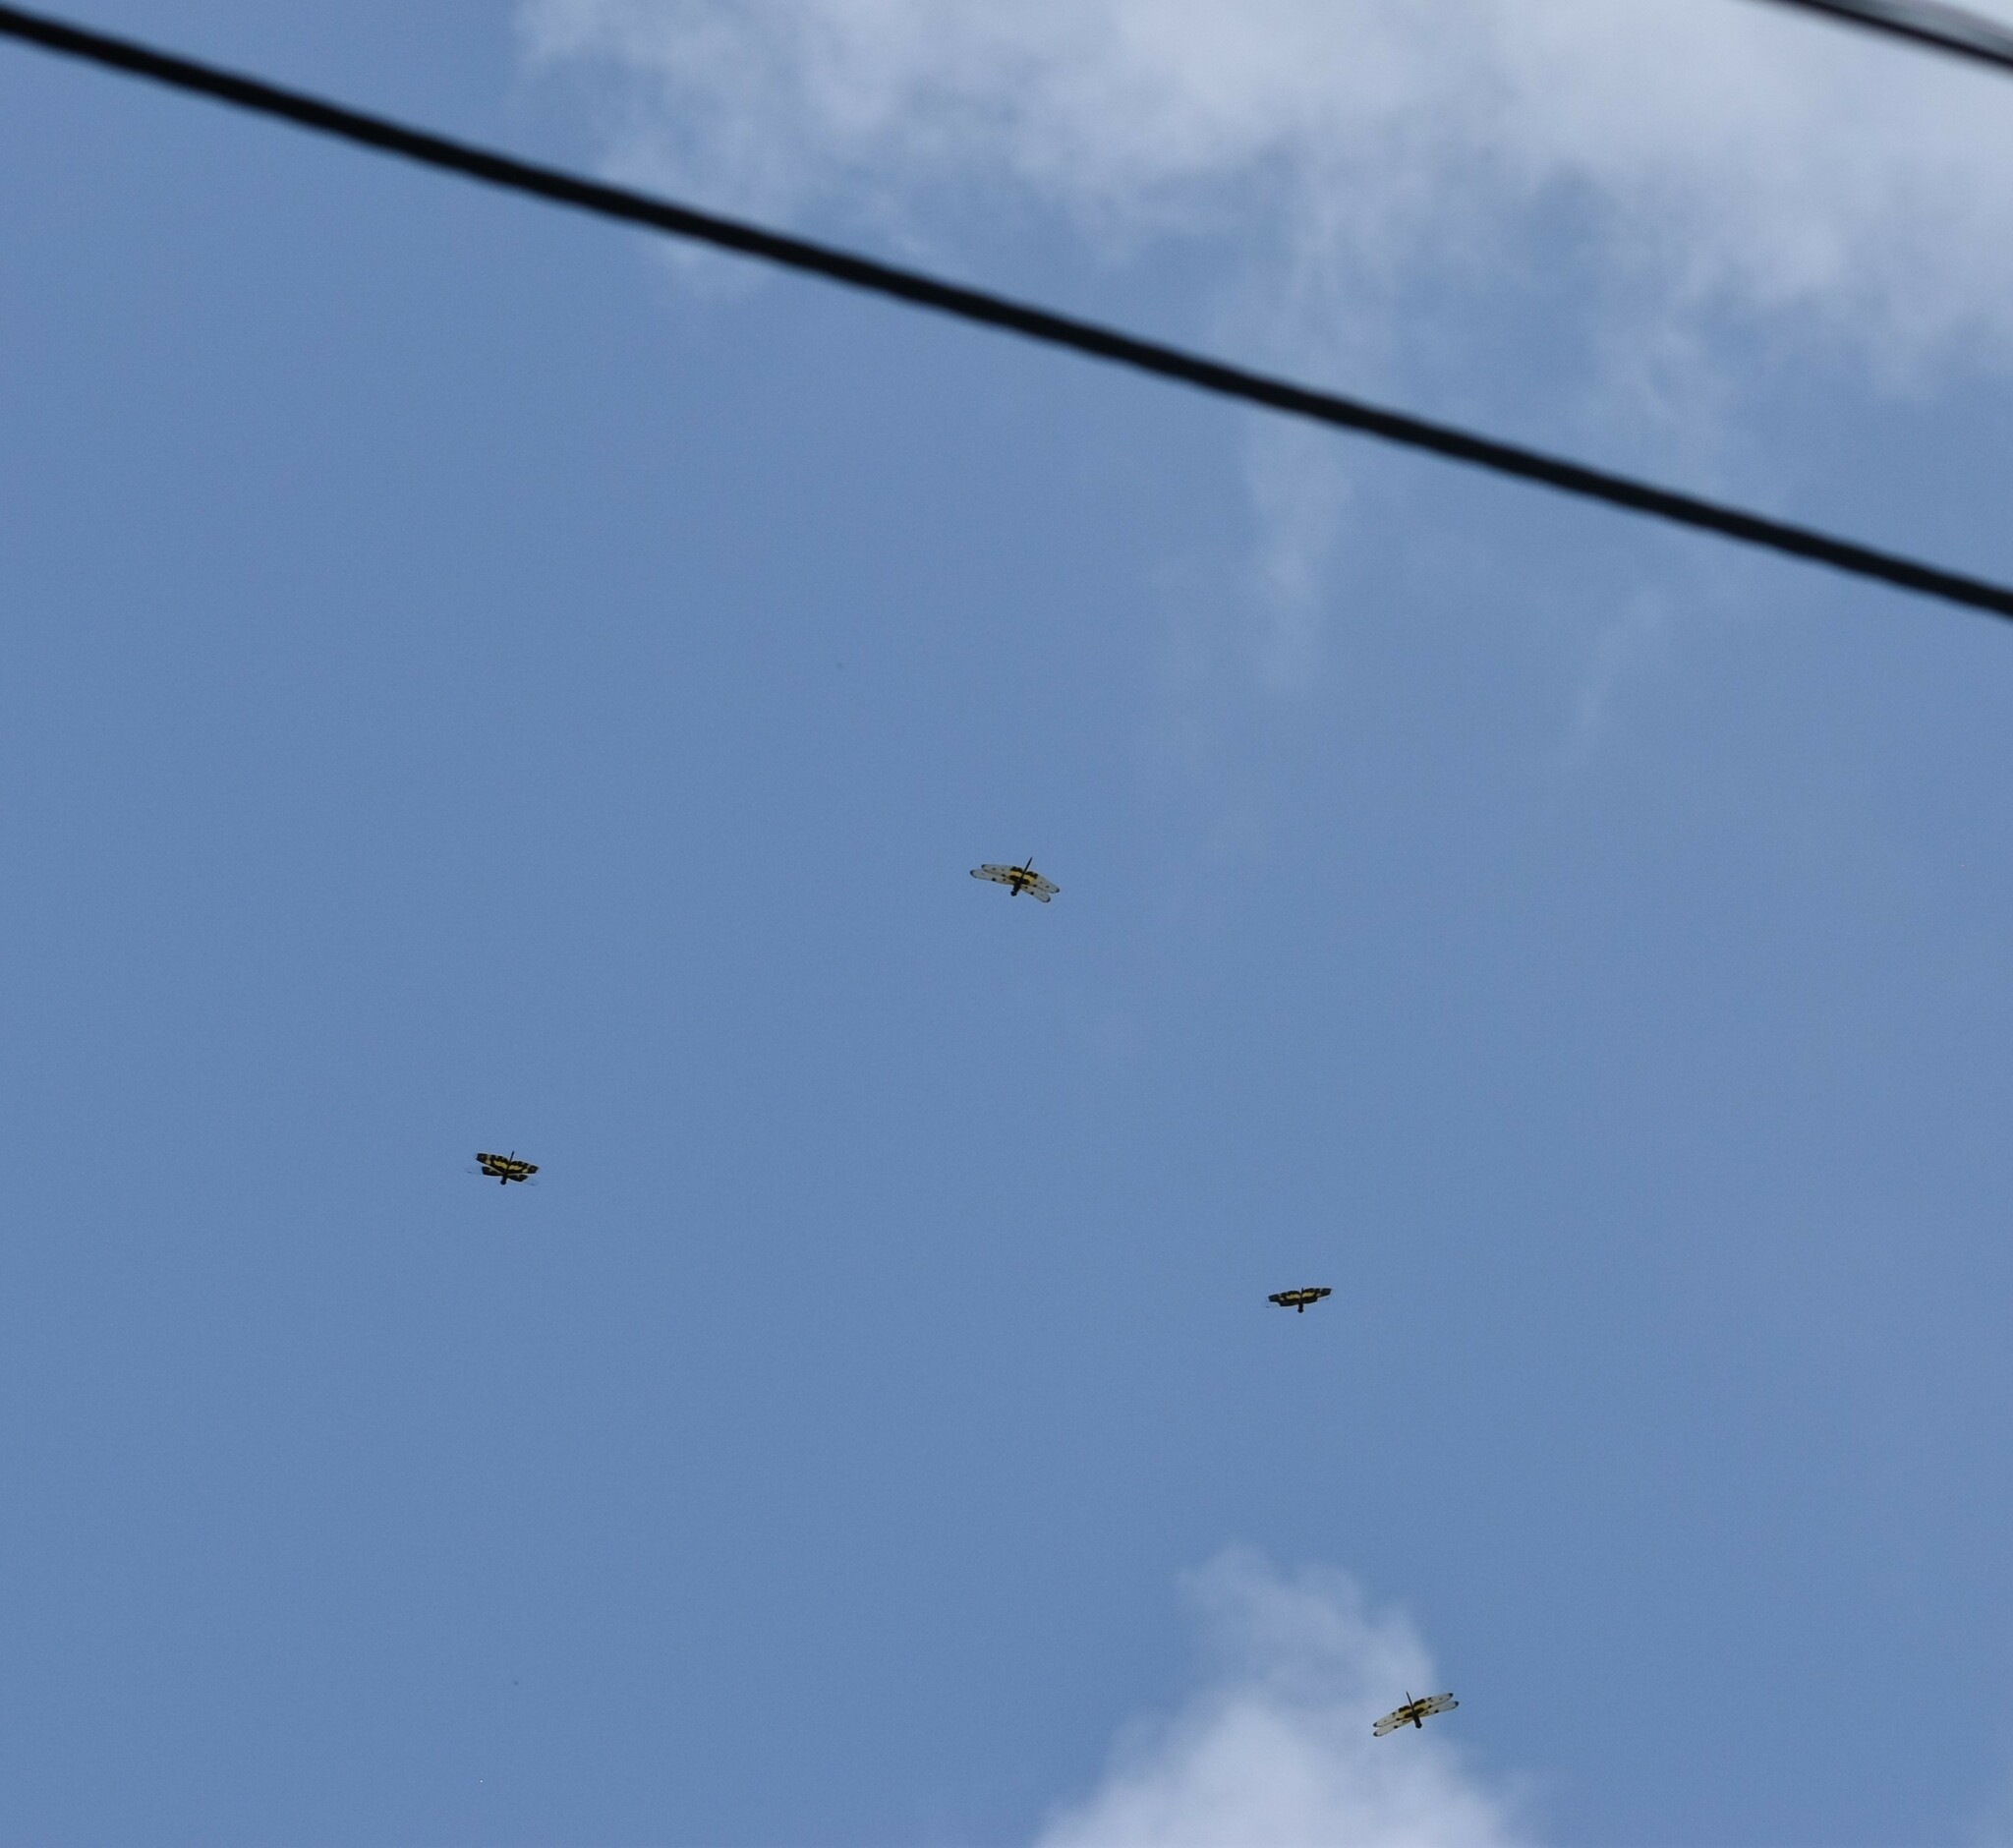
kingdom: Animalia
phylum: Arthropoda
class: Insecta
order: Odonata
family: Libellulidae
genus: Rhyothemis
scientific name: Rhyothemis variegata
